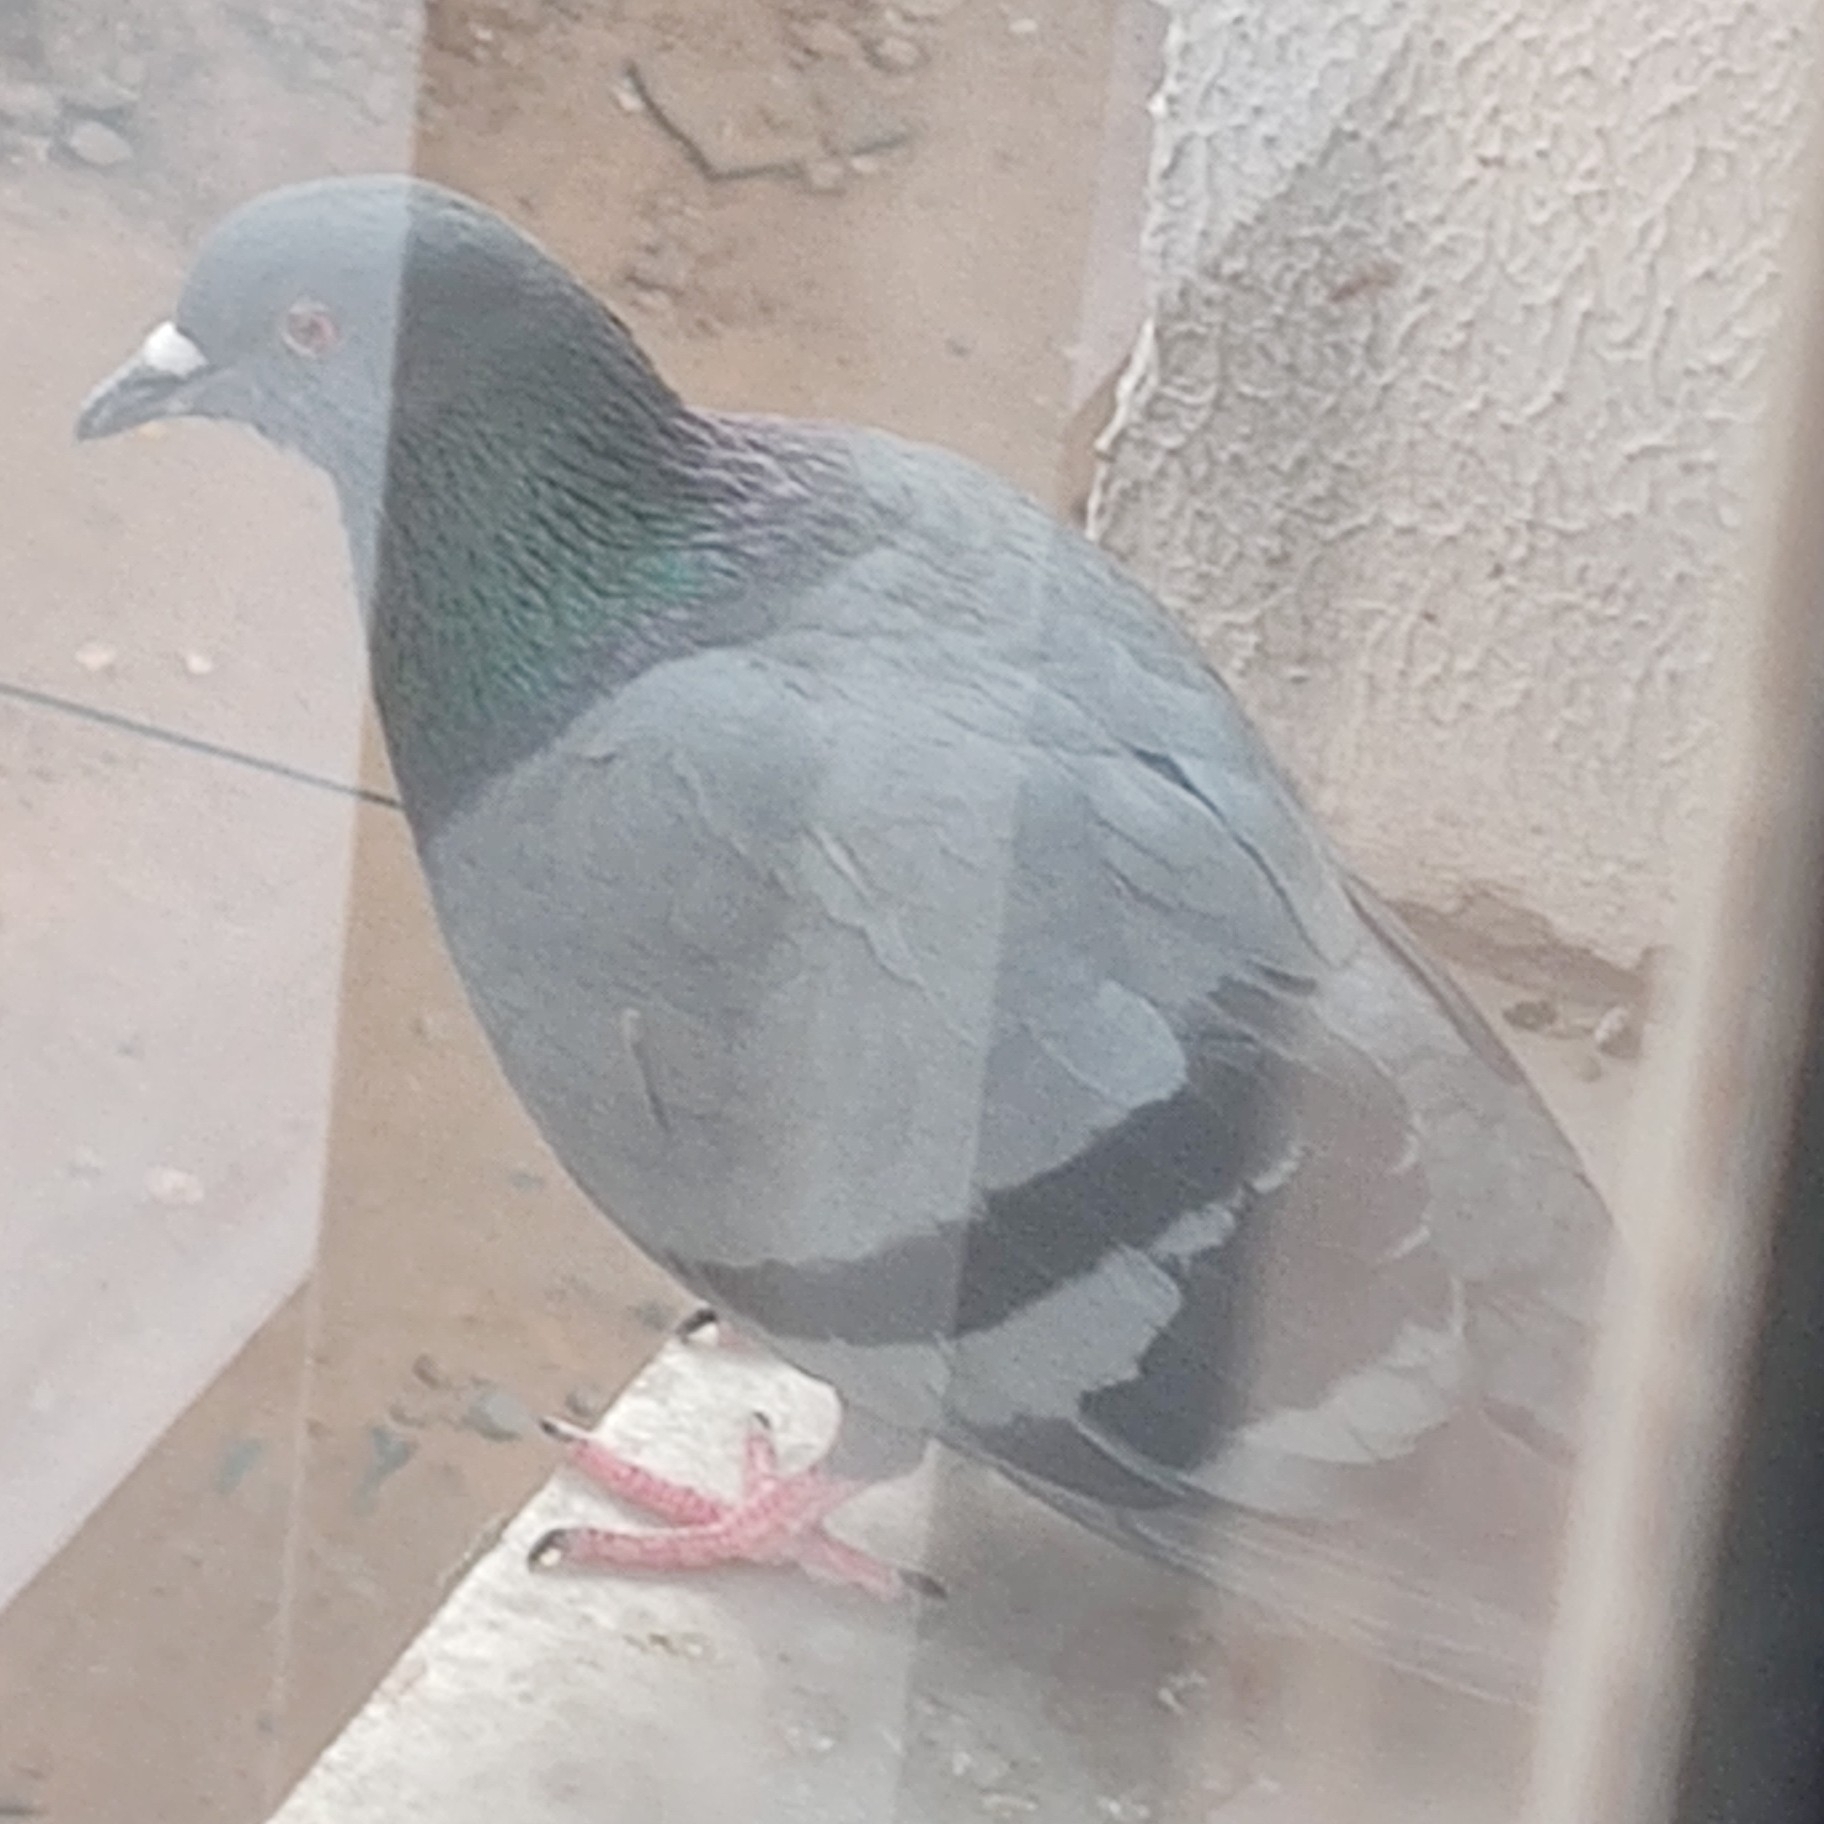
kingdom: Animalia
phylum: Chordata
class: Aves
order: Columbiformes
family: Columbidae
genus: Columba
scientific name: Columba livia
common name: Rock pigeon
